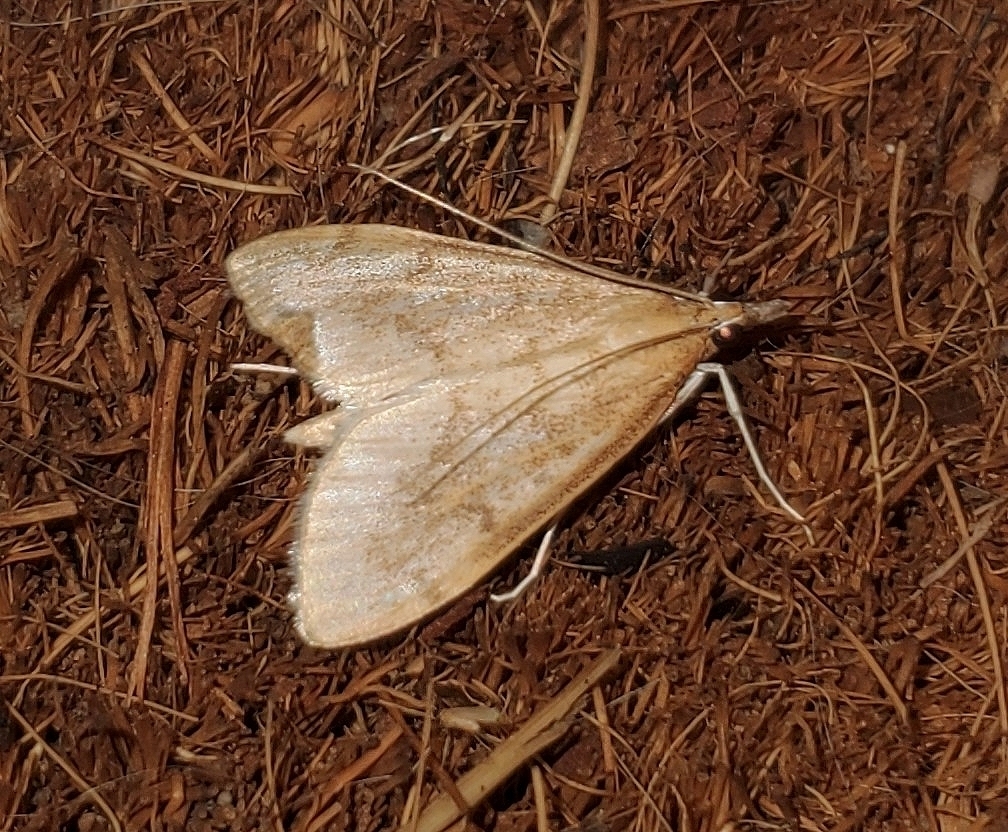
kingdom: Animalia
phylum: Arthropoda
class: Insecta
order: Lepidoptera
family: Crambidae
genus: Saucrobotys
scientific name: Saucrobotys futilalis
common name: Dogbane saucrobotys moth
